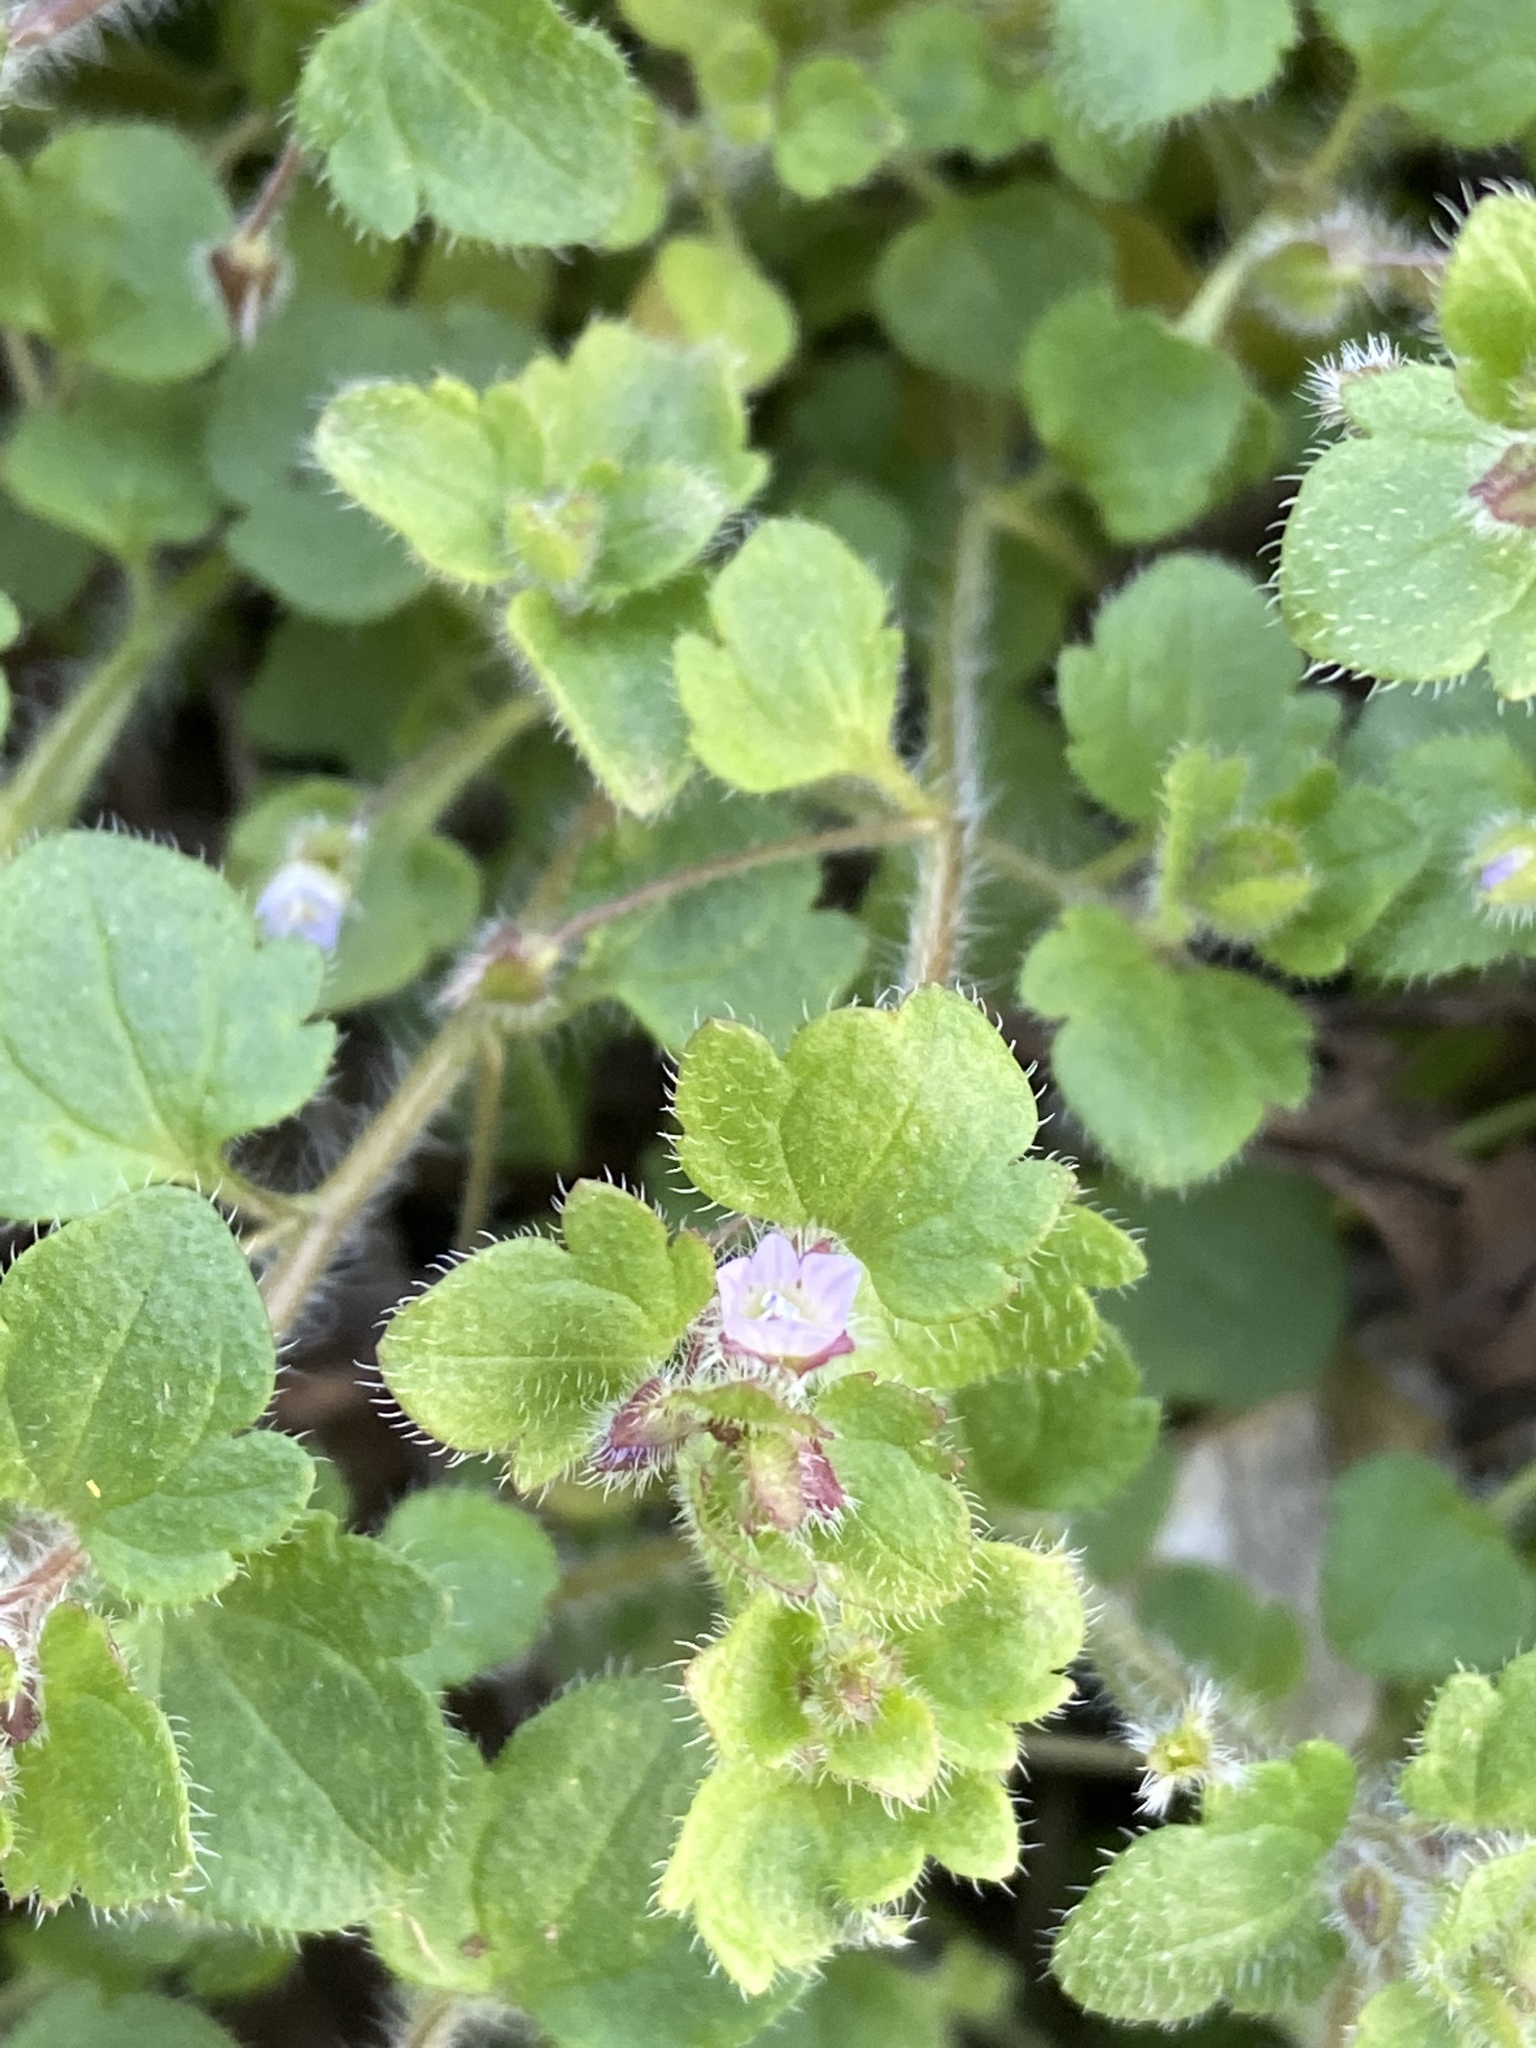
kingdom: Plantae
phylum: Tracheophyta
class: Magnoliopsida
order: Lamiales
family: Plantaginaceae
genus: Veronica
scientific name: Veronica hederifolia
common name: Ivy-leaved speedwell
